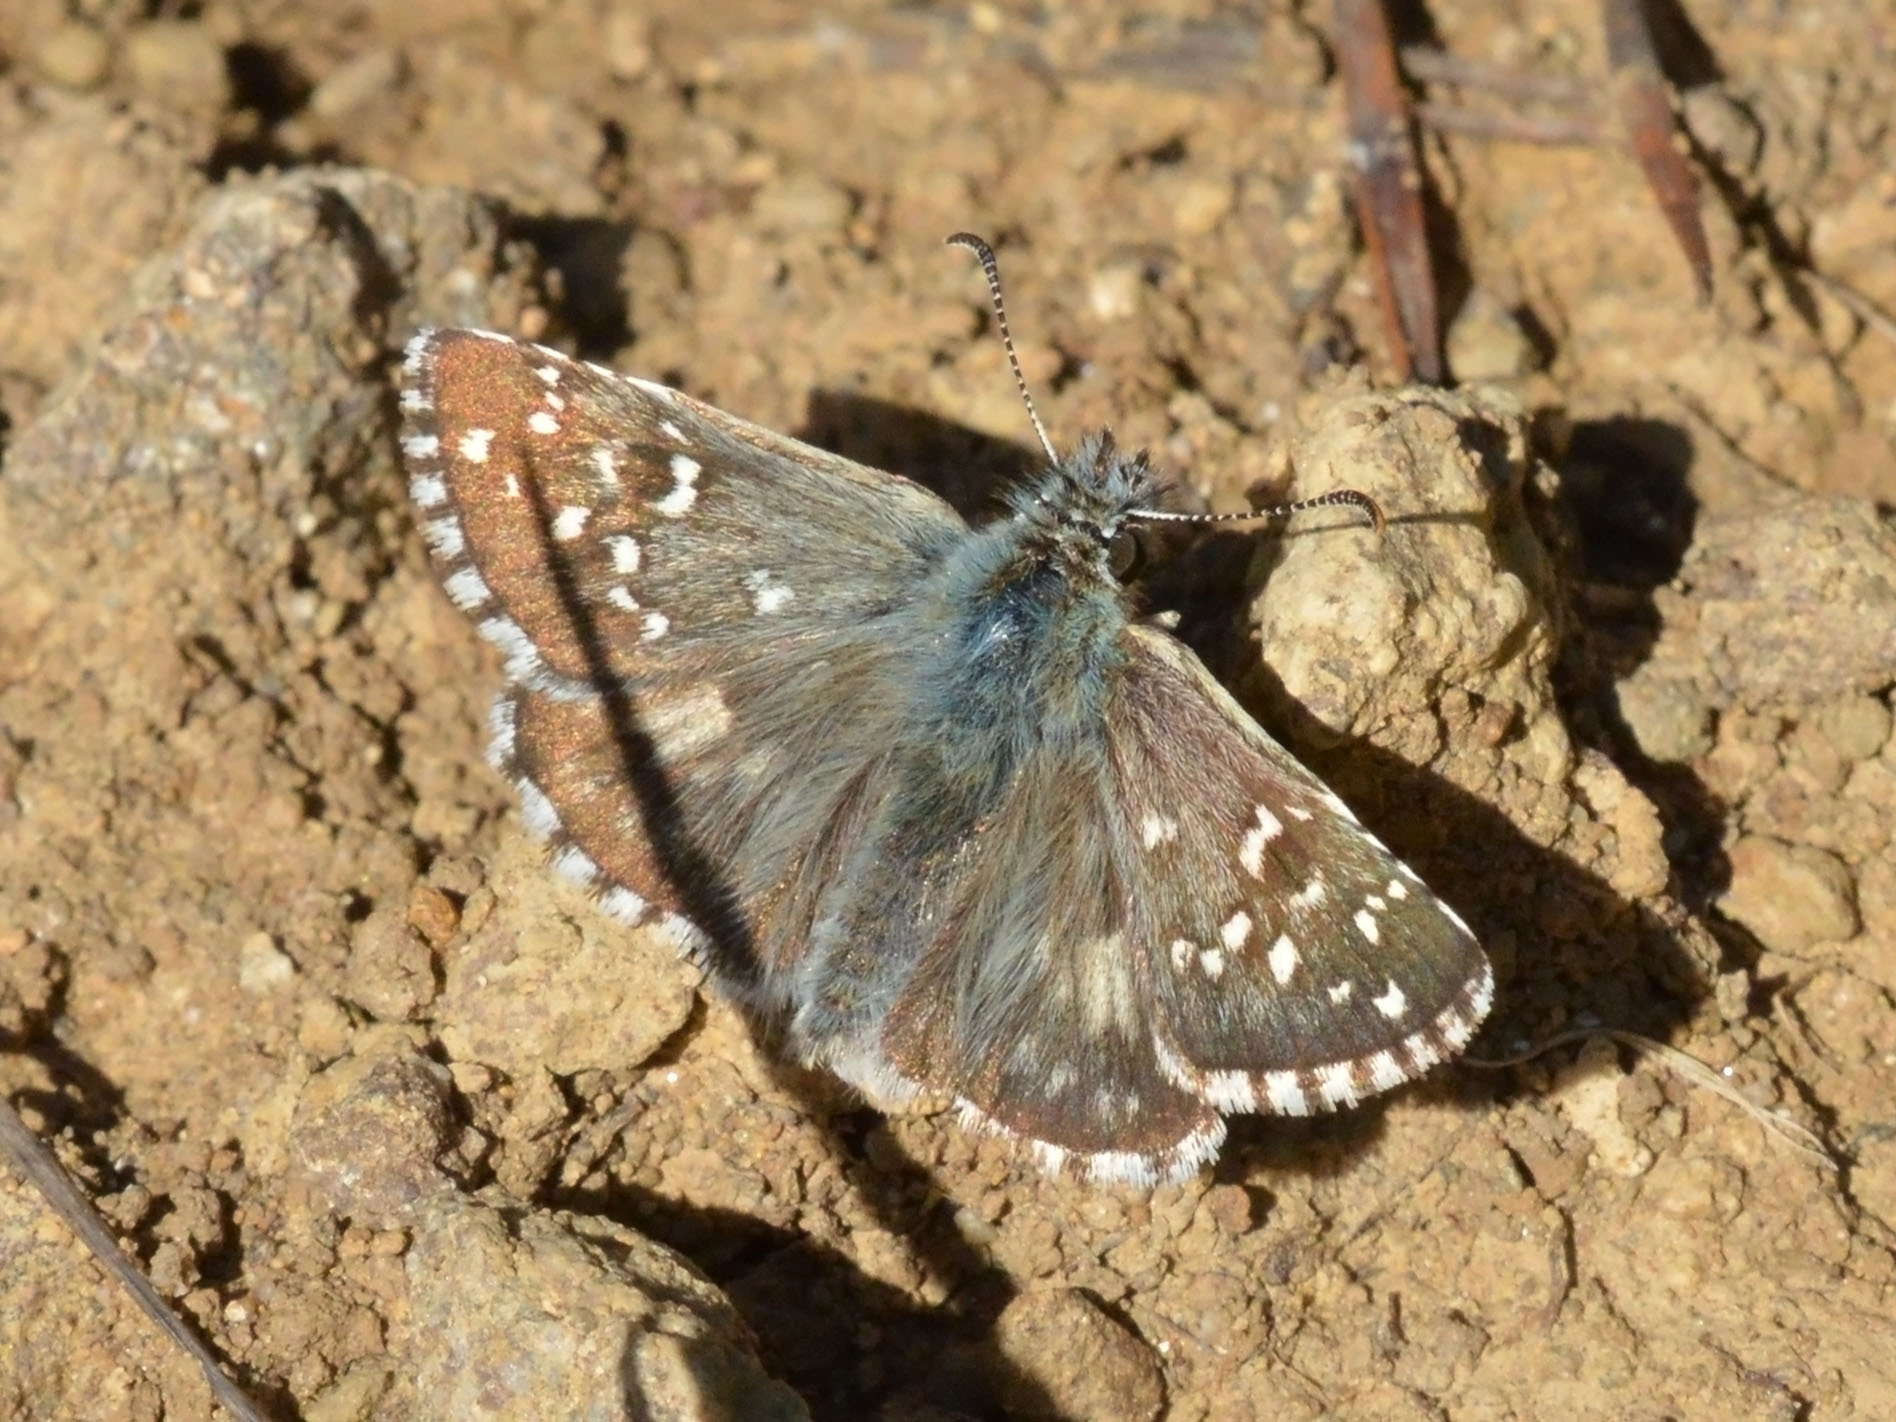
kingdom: Animalia
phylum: Arthropoda
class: Insecta
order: Lepidoptera
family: Hesperiidae
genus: Pyrgus
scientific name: Pyrgus armoricanus
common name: Oberthür's grizzled skipper
